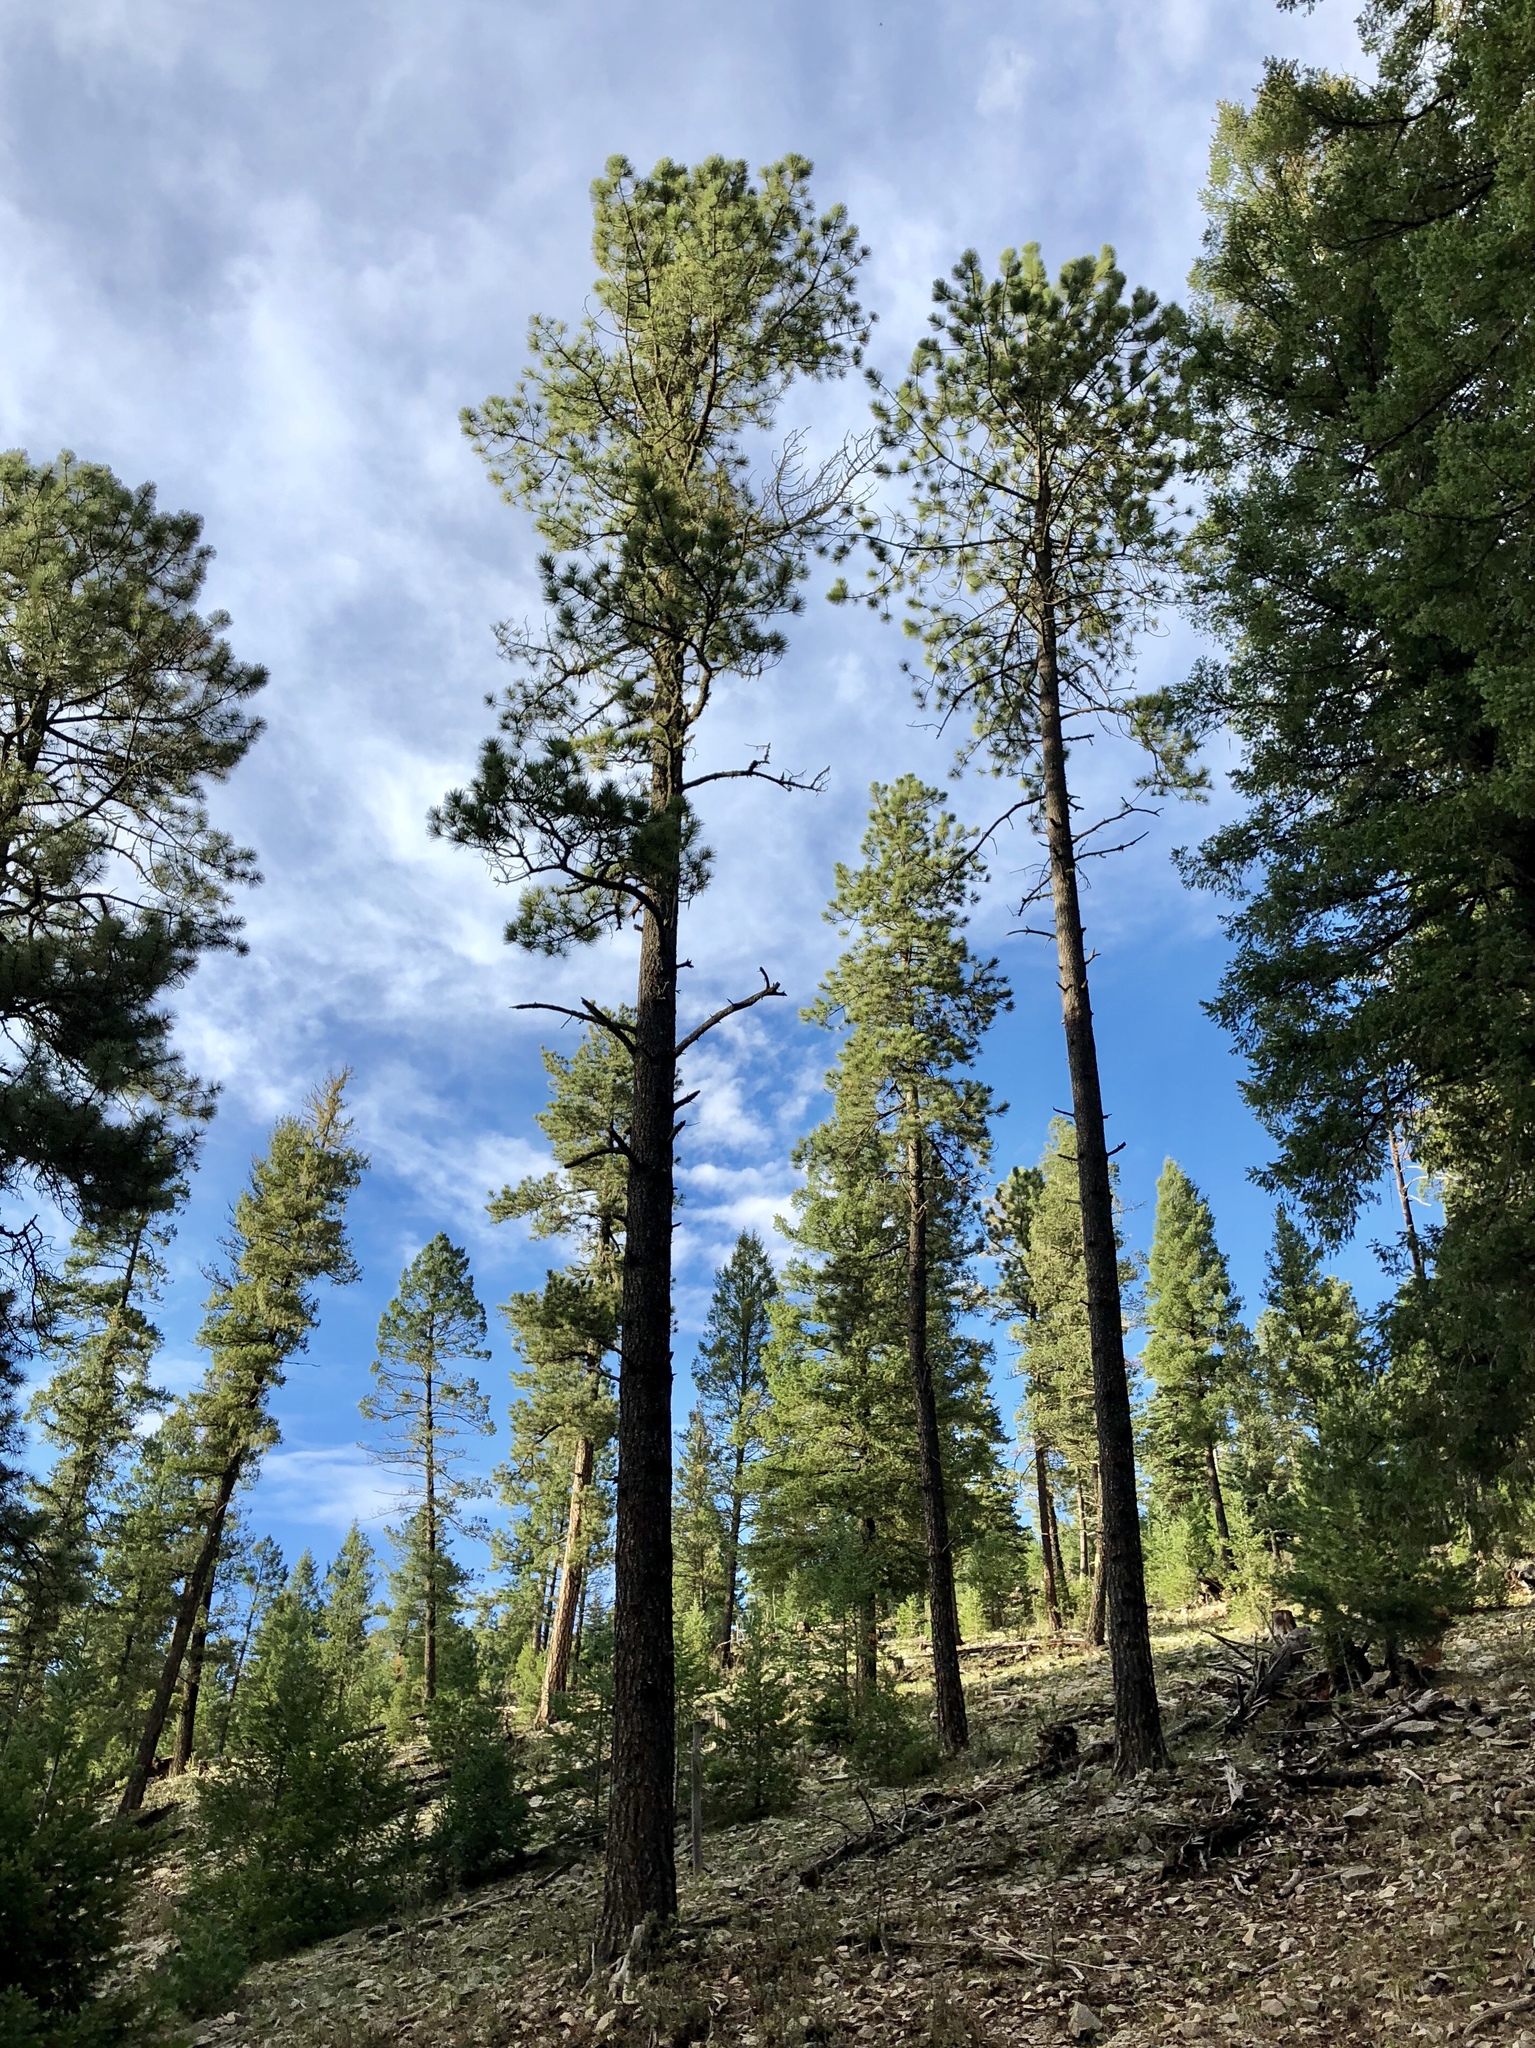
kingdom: Plantae
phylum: Tracheophyta
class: Pinopsida
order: Pinales
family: Pinaceae
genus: Pinus
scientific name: Pinus ponderosa
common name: Western yellow-pine
